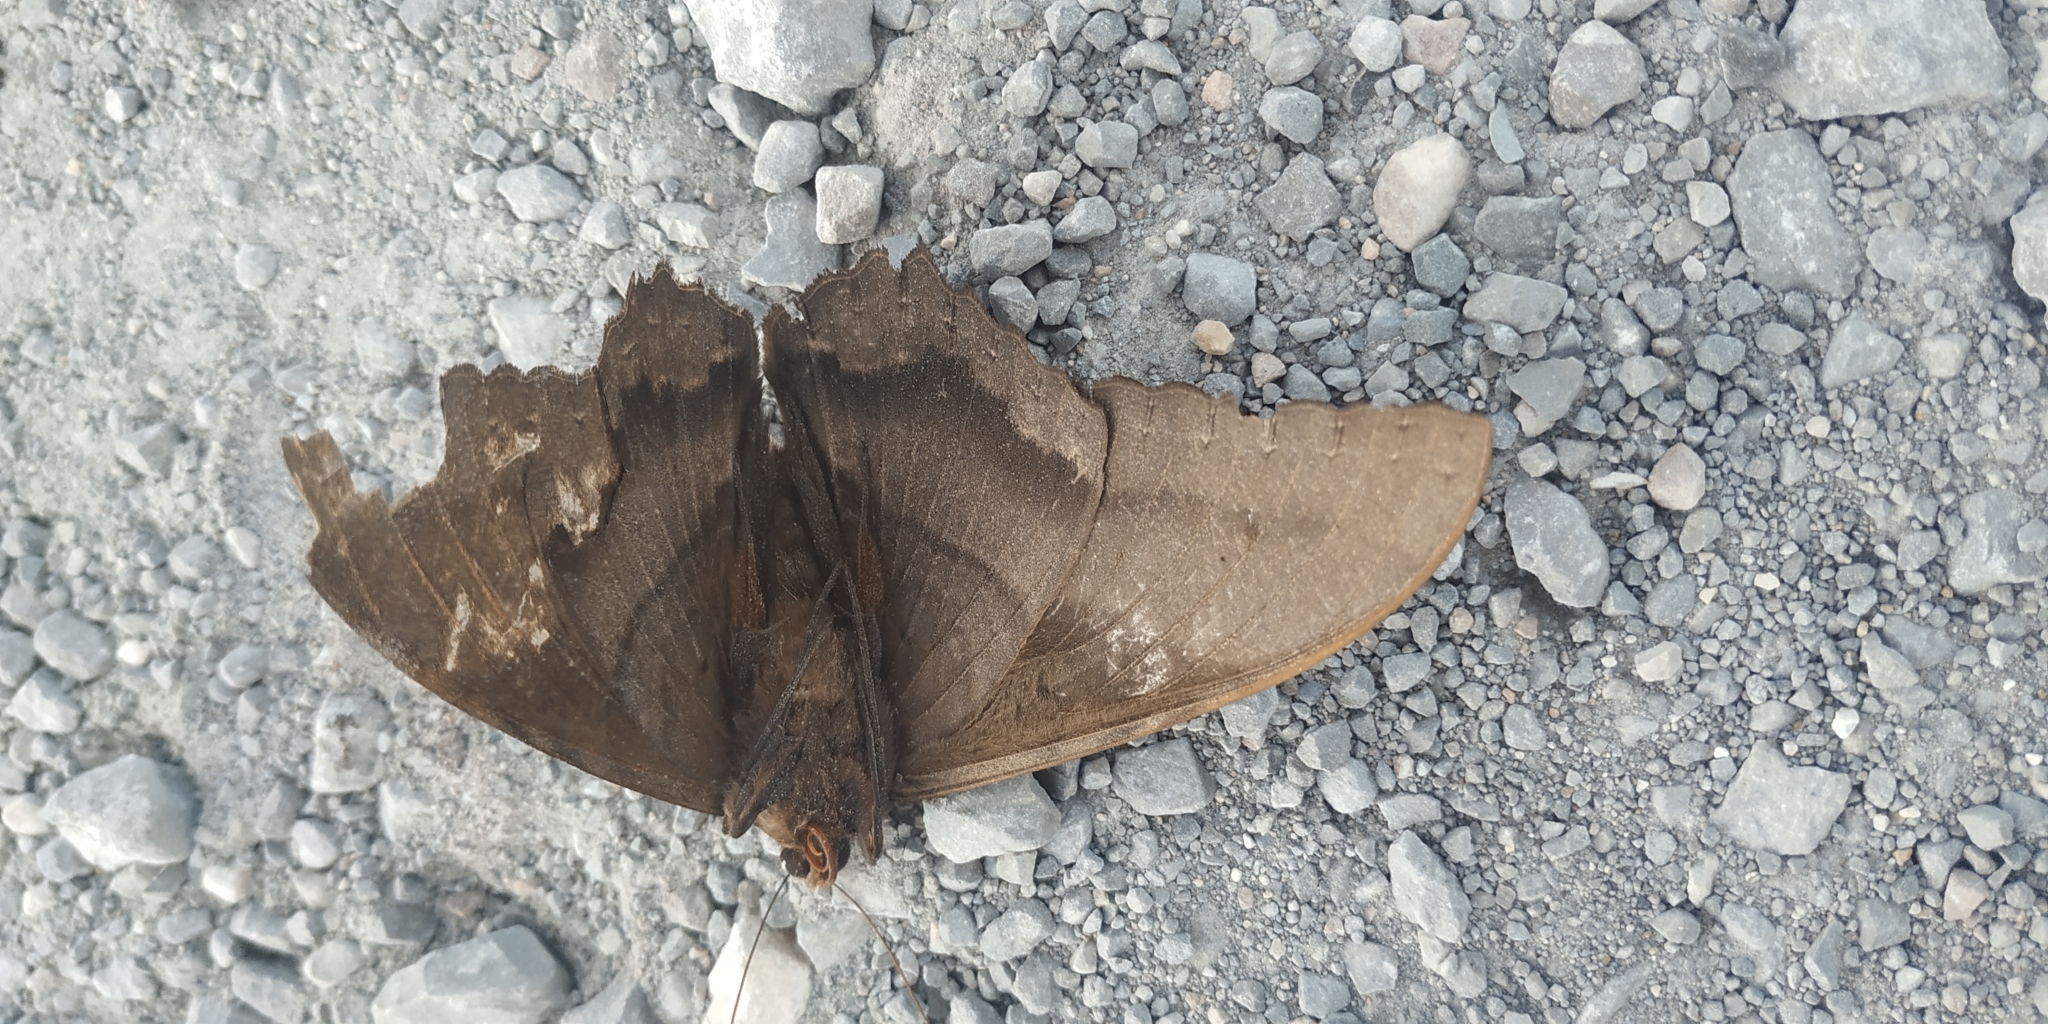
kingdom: Animalia
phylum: Arthropoda
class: Insecta
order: Lepidoptera
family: Erebidae
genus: Ascalapha
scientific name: Ascalapha odorata
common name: Black witch
